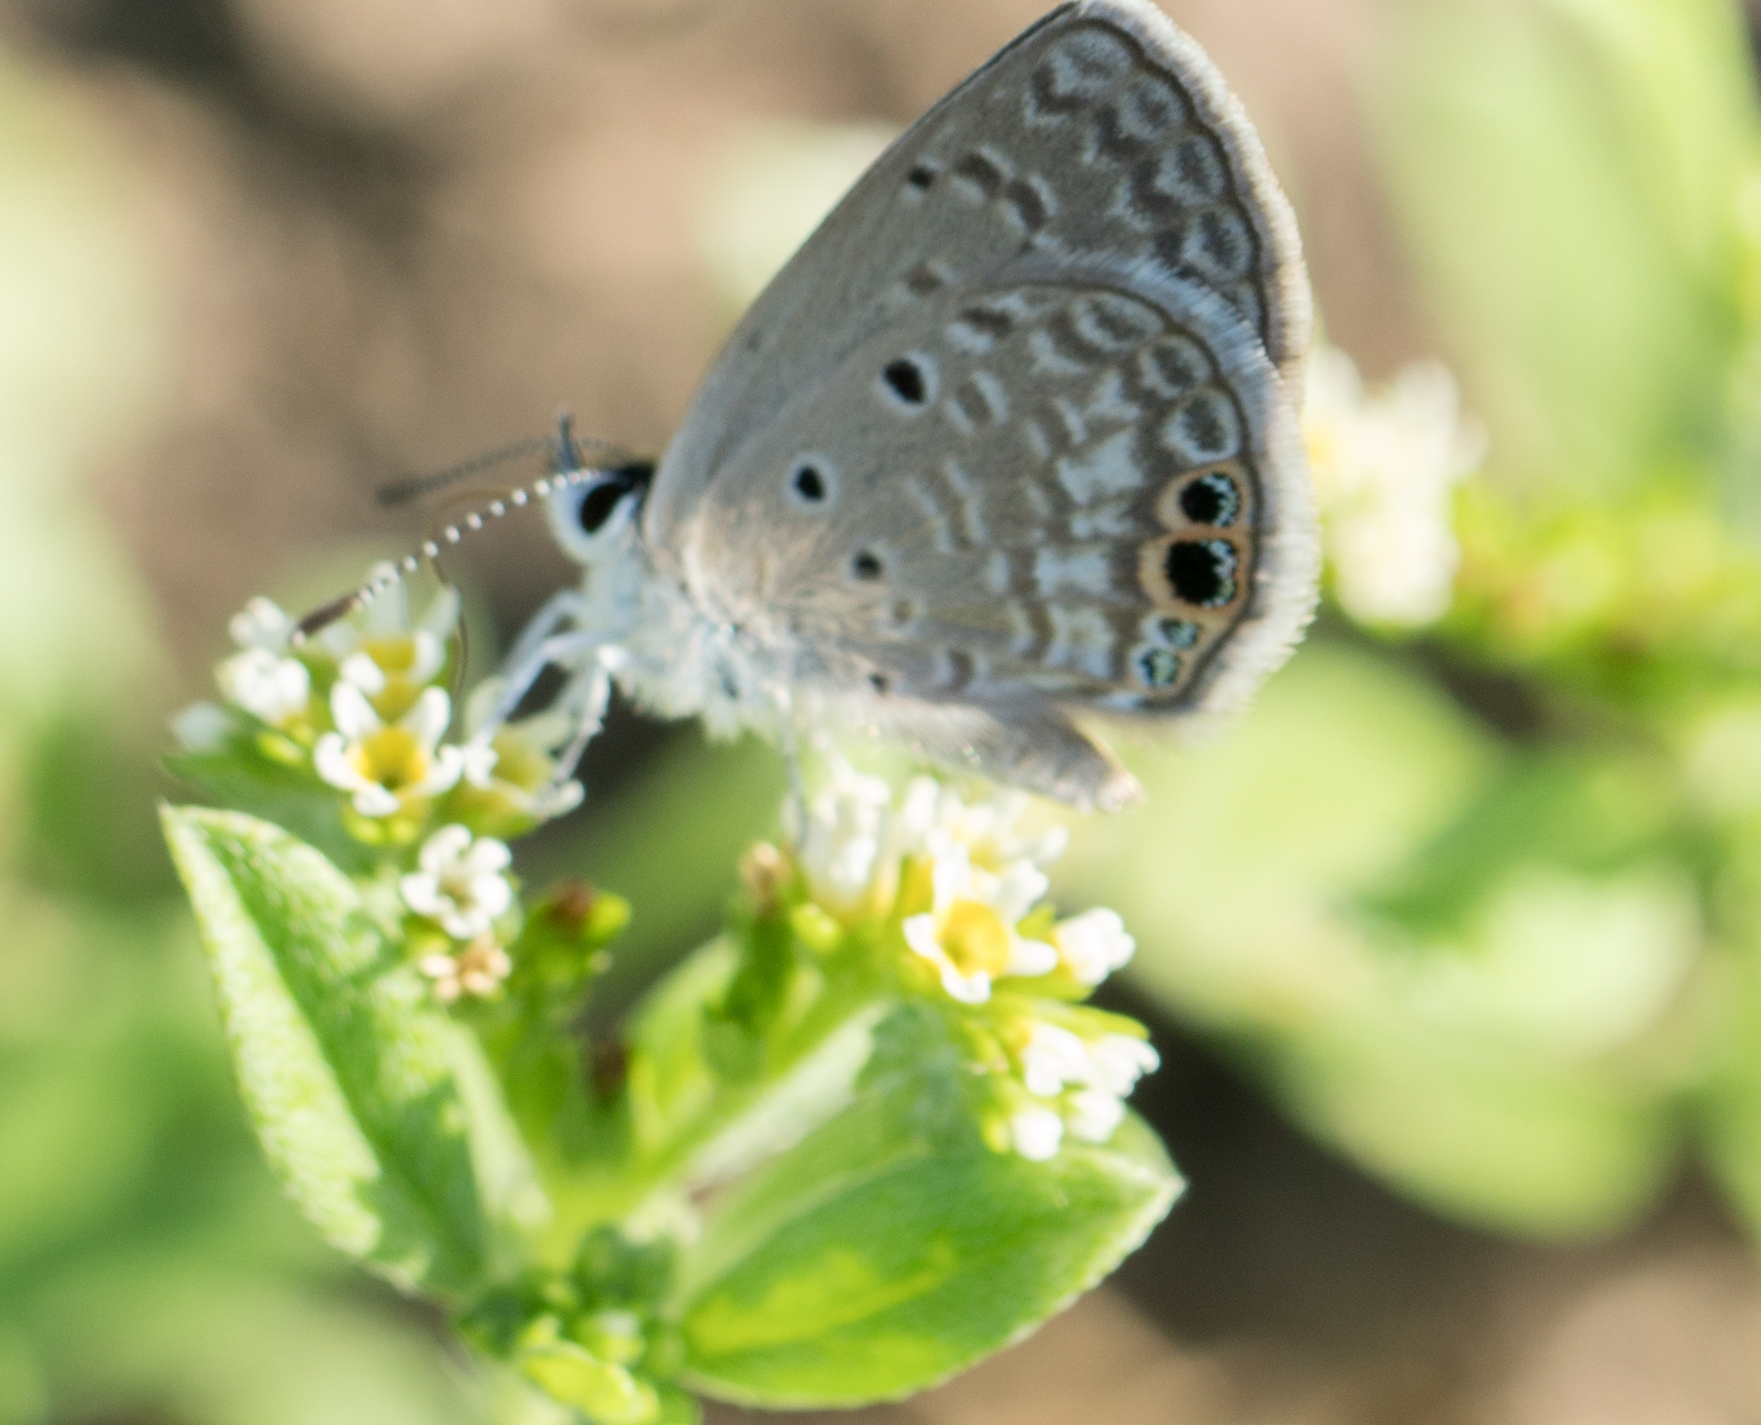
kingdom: Animalia
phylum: Arthropoda
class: Insecta
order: Lepidoptera
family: Lycaenidae
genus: Hemiargus
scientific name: Hemiargus ceraunus
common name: Ceraunus blue
